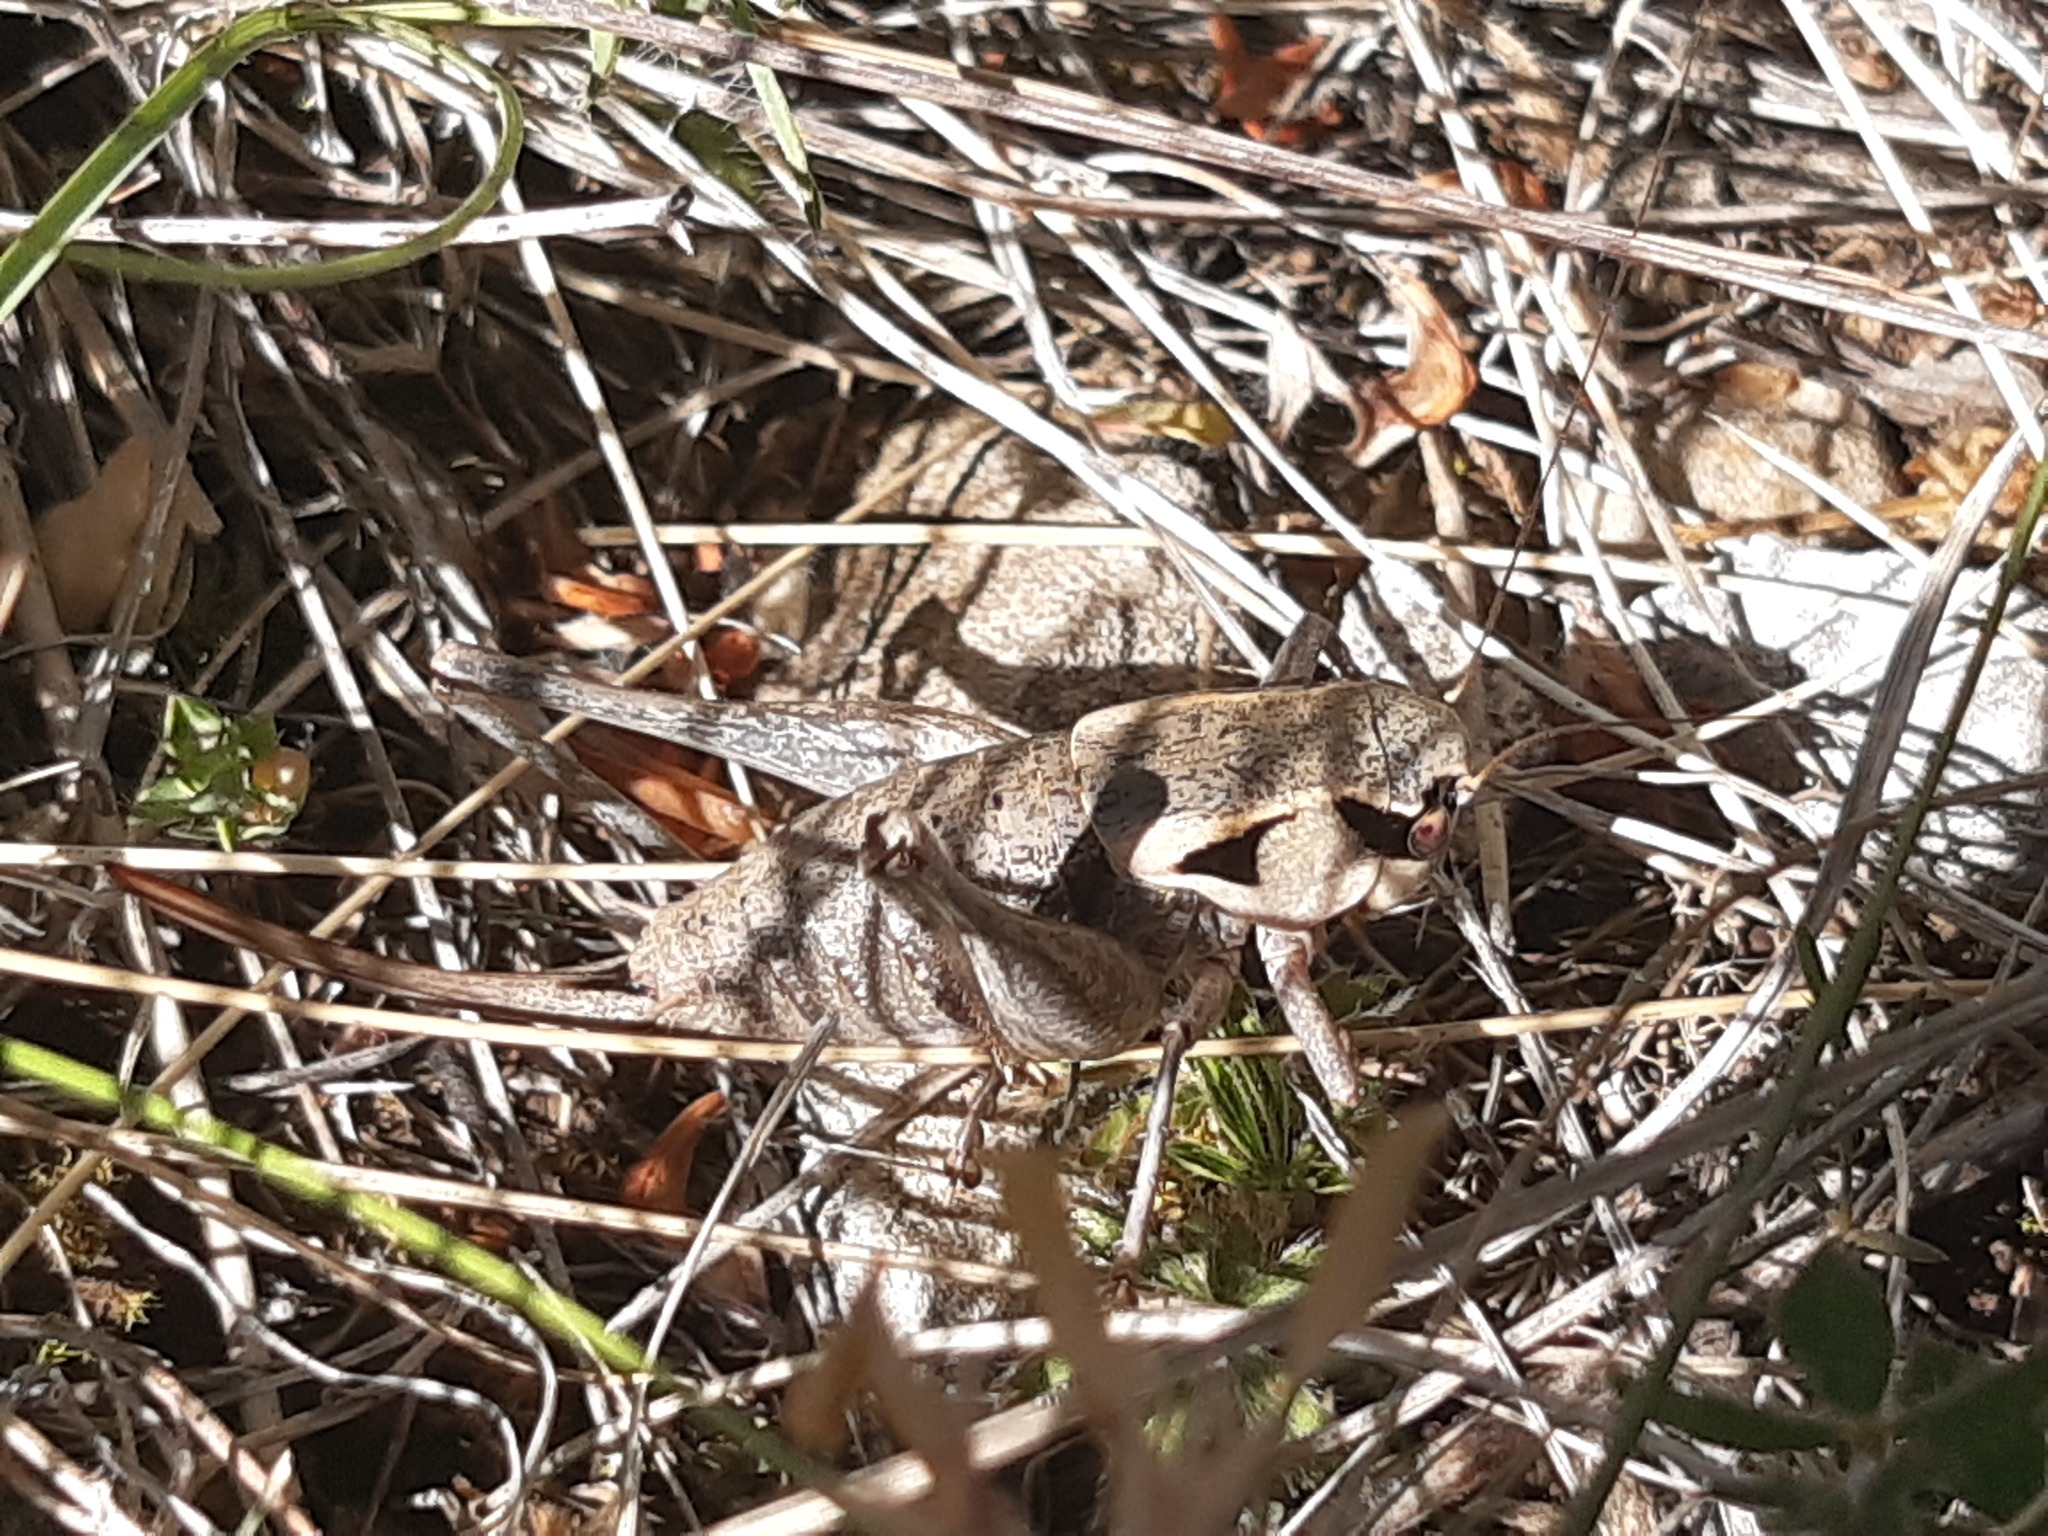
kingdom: Animalia
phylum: Arthropoda
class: Insecta
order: Orthoptera
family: Tettigoniidae
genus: Pholidoptera
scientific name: Pholidoptera dalmatica
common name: Dalmatian dark bush-cricket
